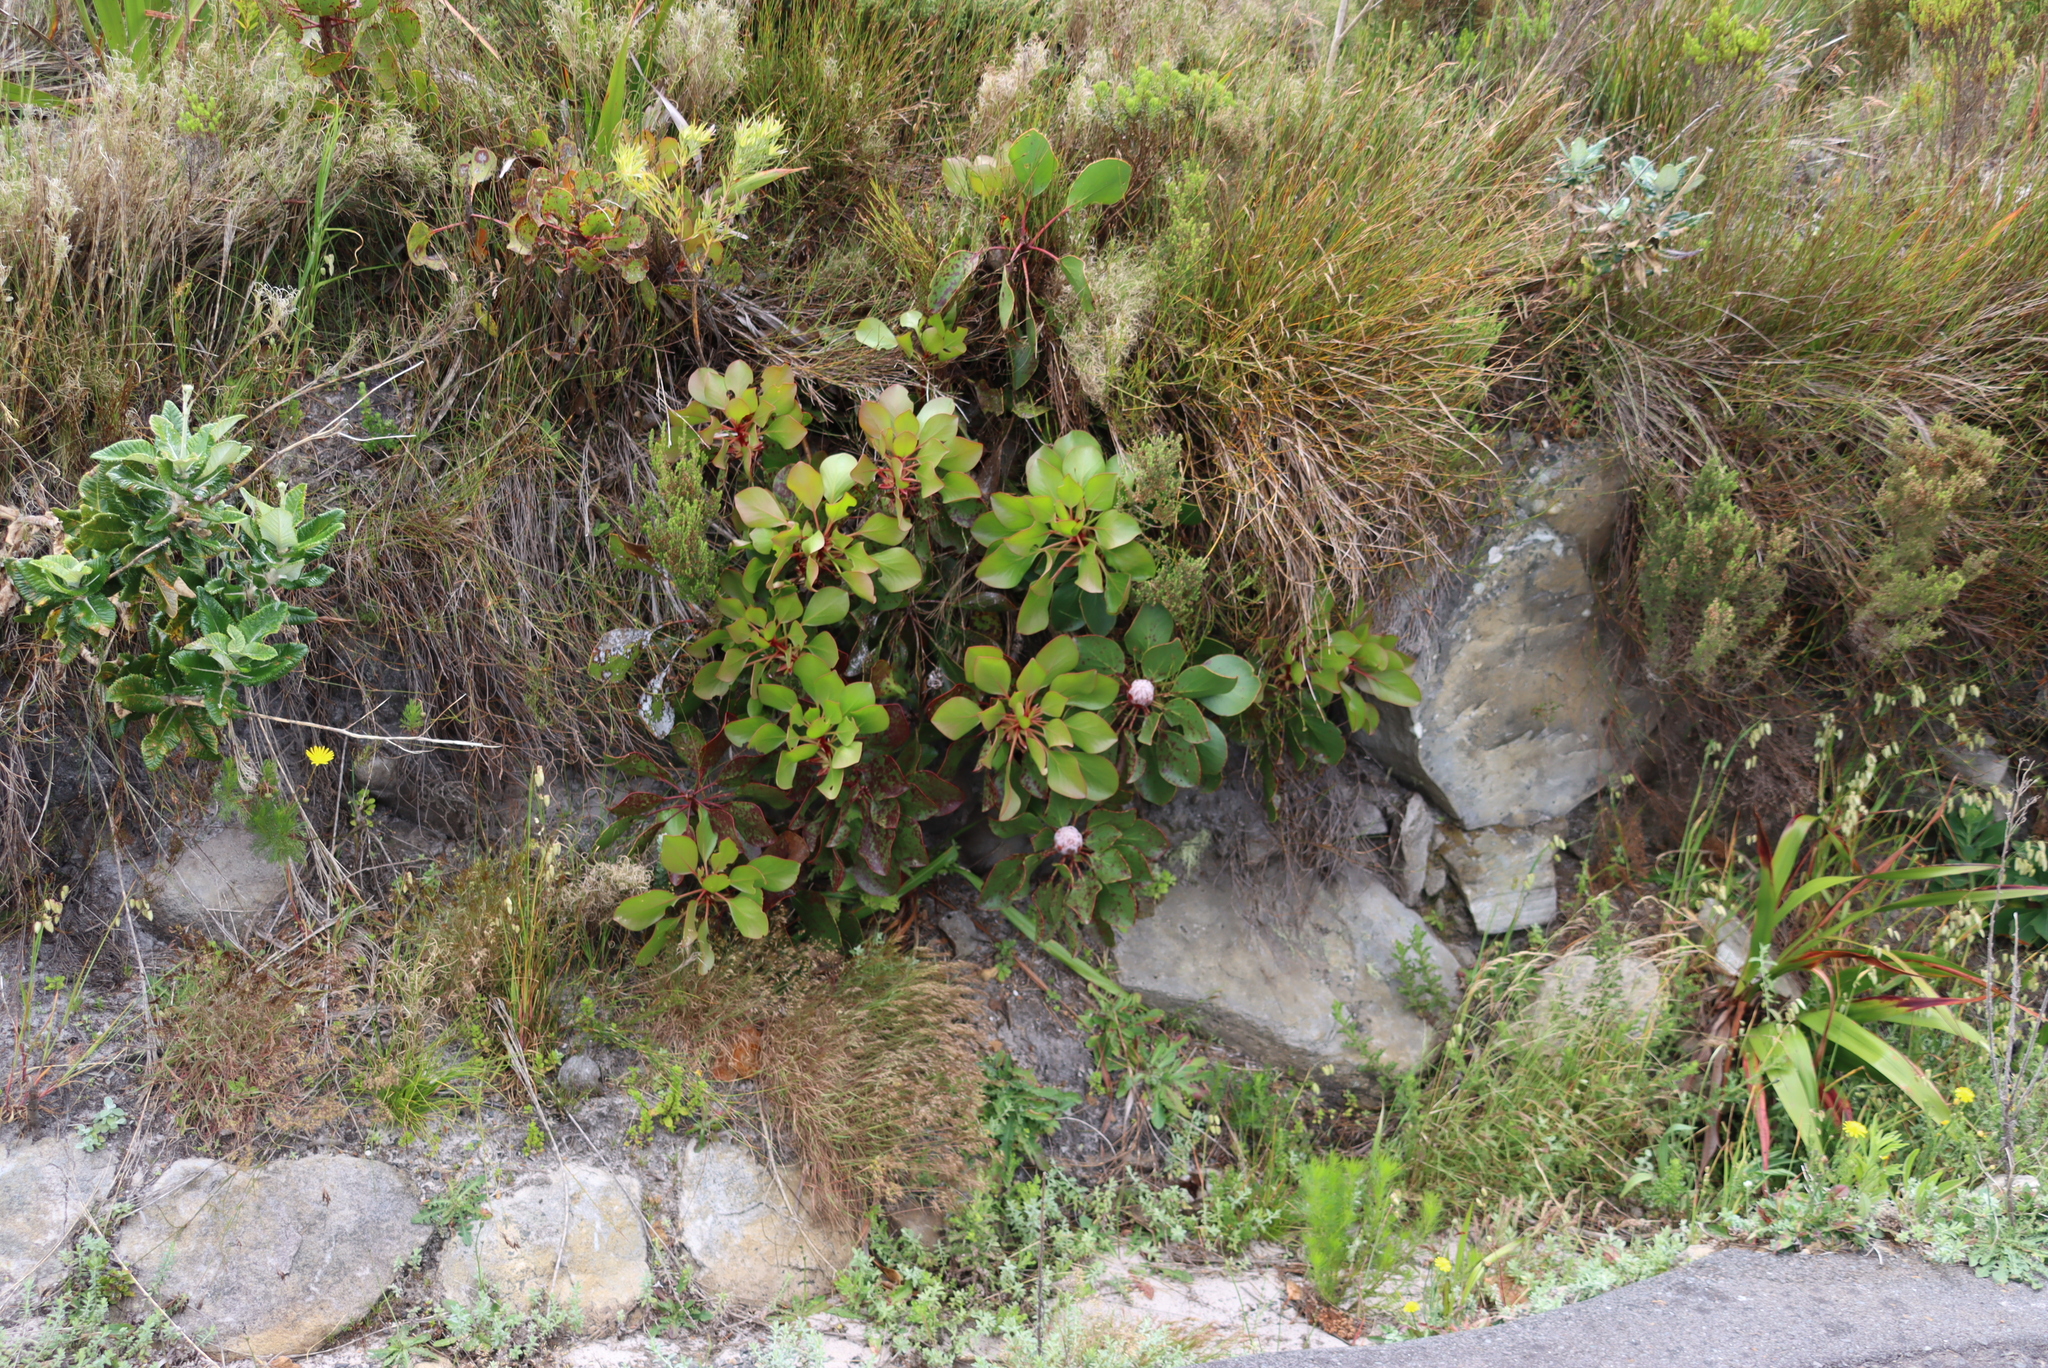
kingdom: Plantae
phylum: Tracheophyta
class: Magnoliopsida
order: Proteales
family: Proteaceae
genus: Protea
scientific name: Protea cynaroides
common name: King protea
